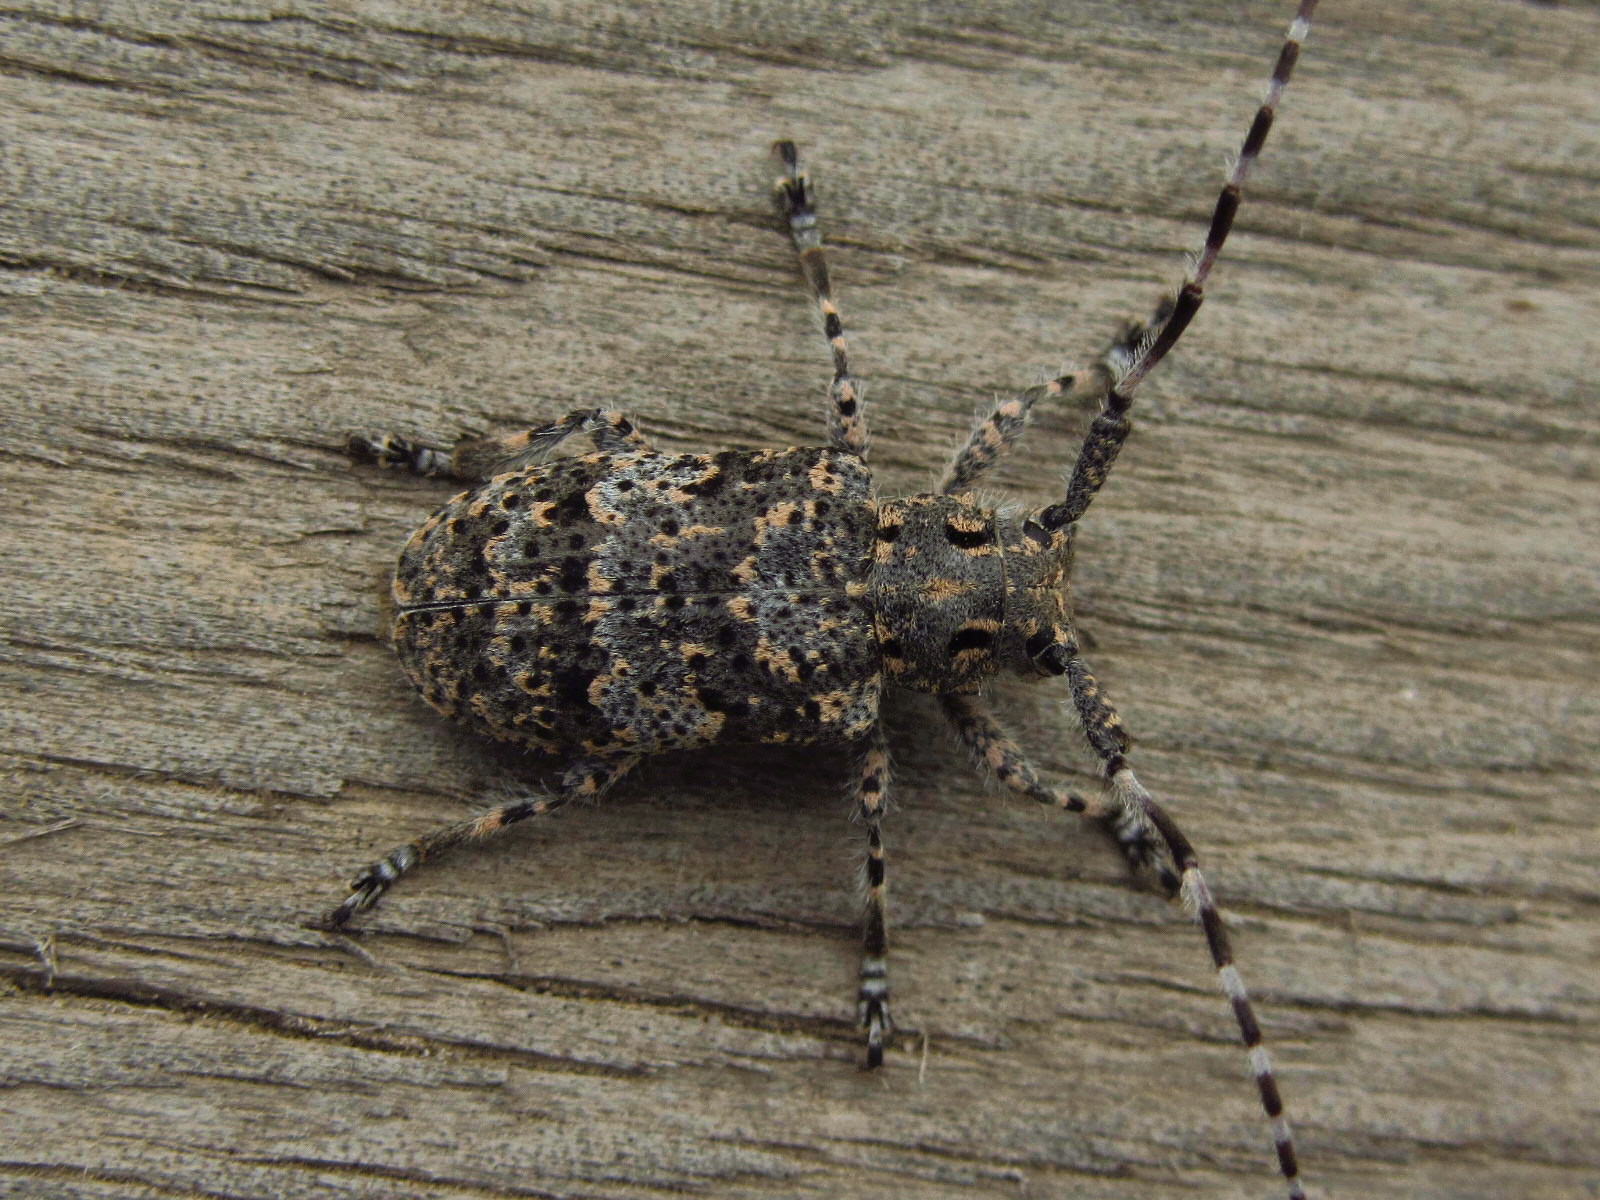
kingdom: Animalia
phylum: Arthropoda
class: Insecta
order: Coleoptera
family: Cerambycidae
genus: Mesosa
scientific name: Mesosa myops
